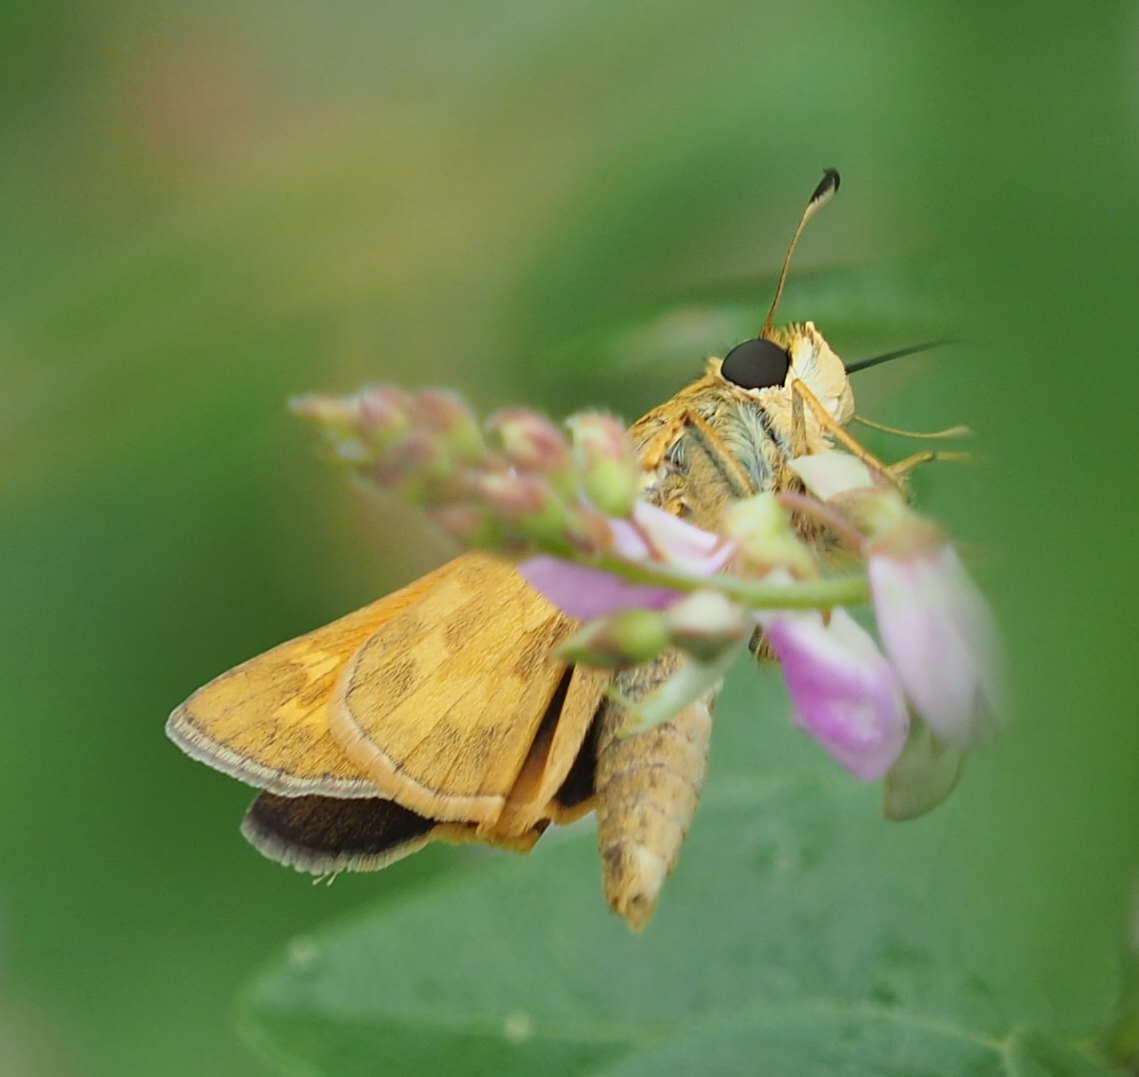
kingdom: Animalia
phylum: Arthropoda
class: Insecta
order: Lepidoptera
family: Hesperiidae
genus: Atalopedes
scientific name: Atalopedes
